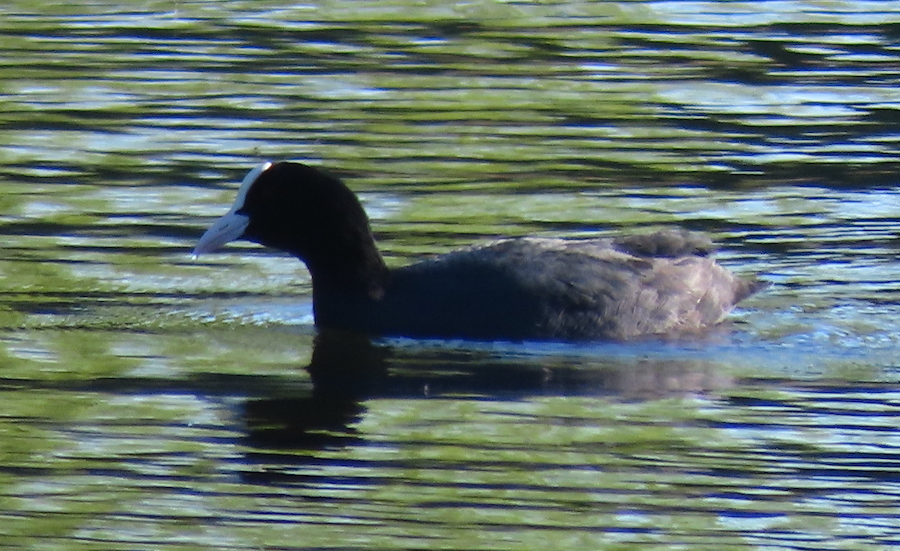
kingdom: Animalia
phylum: Chordata
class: Aves
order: Gruiformes
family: Rallidae
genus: Fulica
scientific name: Fulica atra
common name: Eurasian coot
